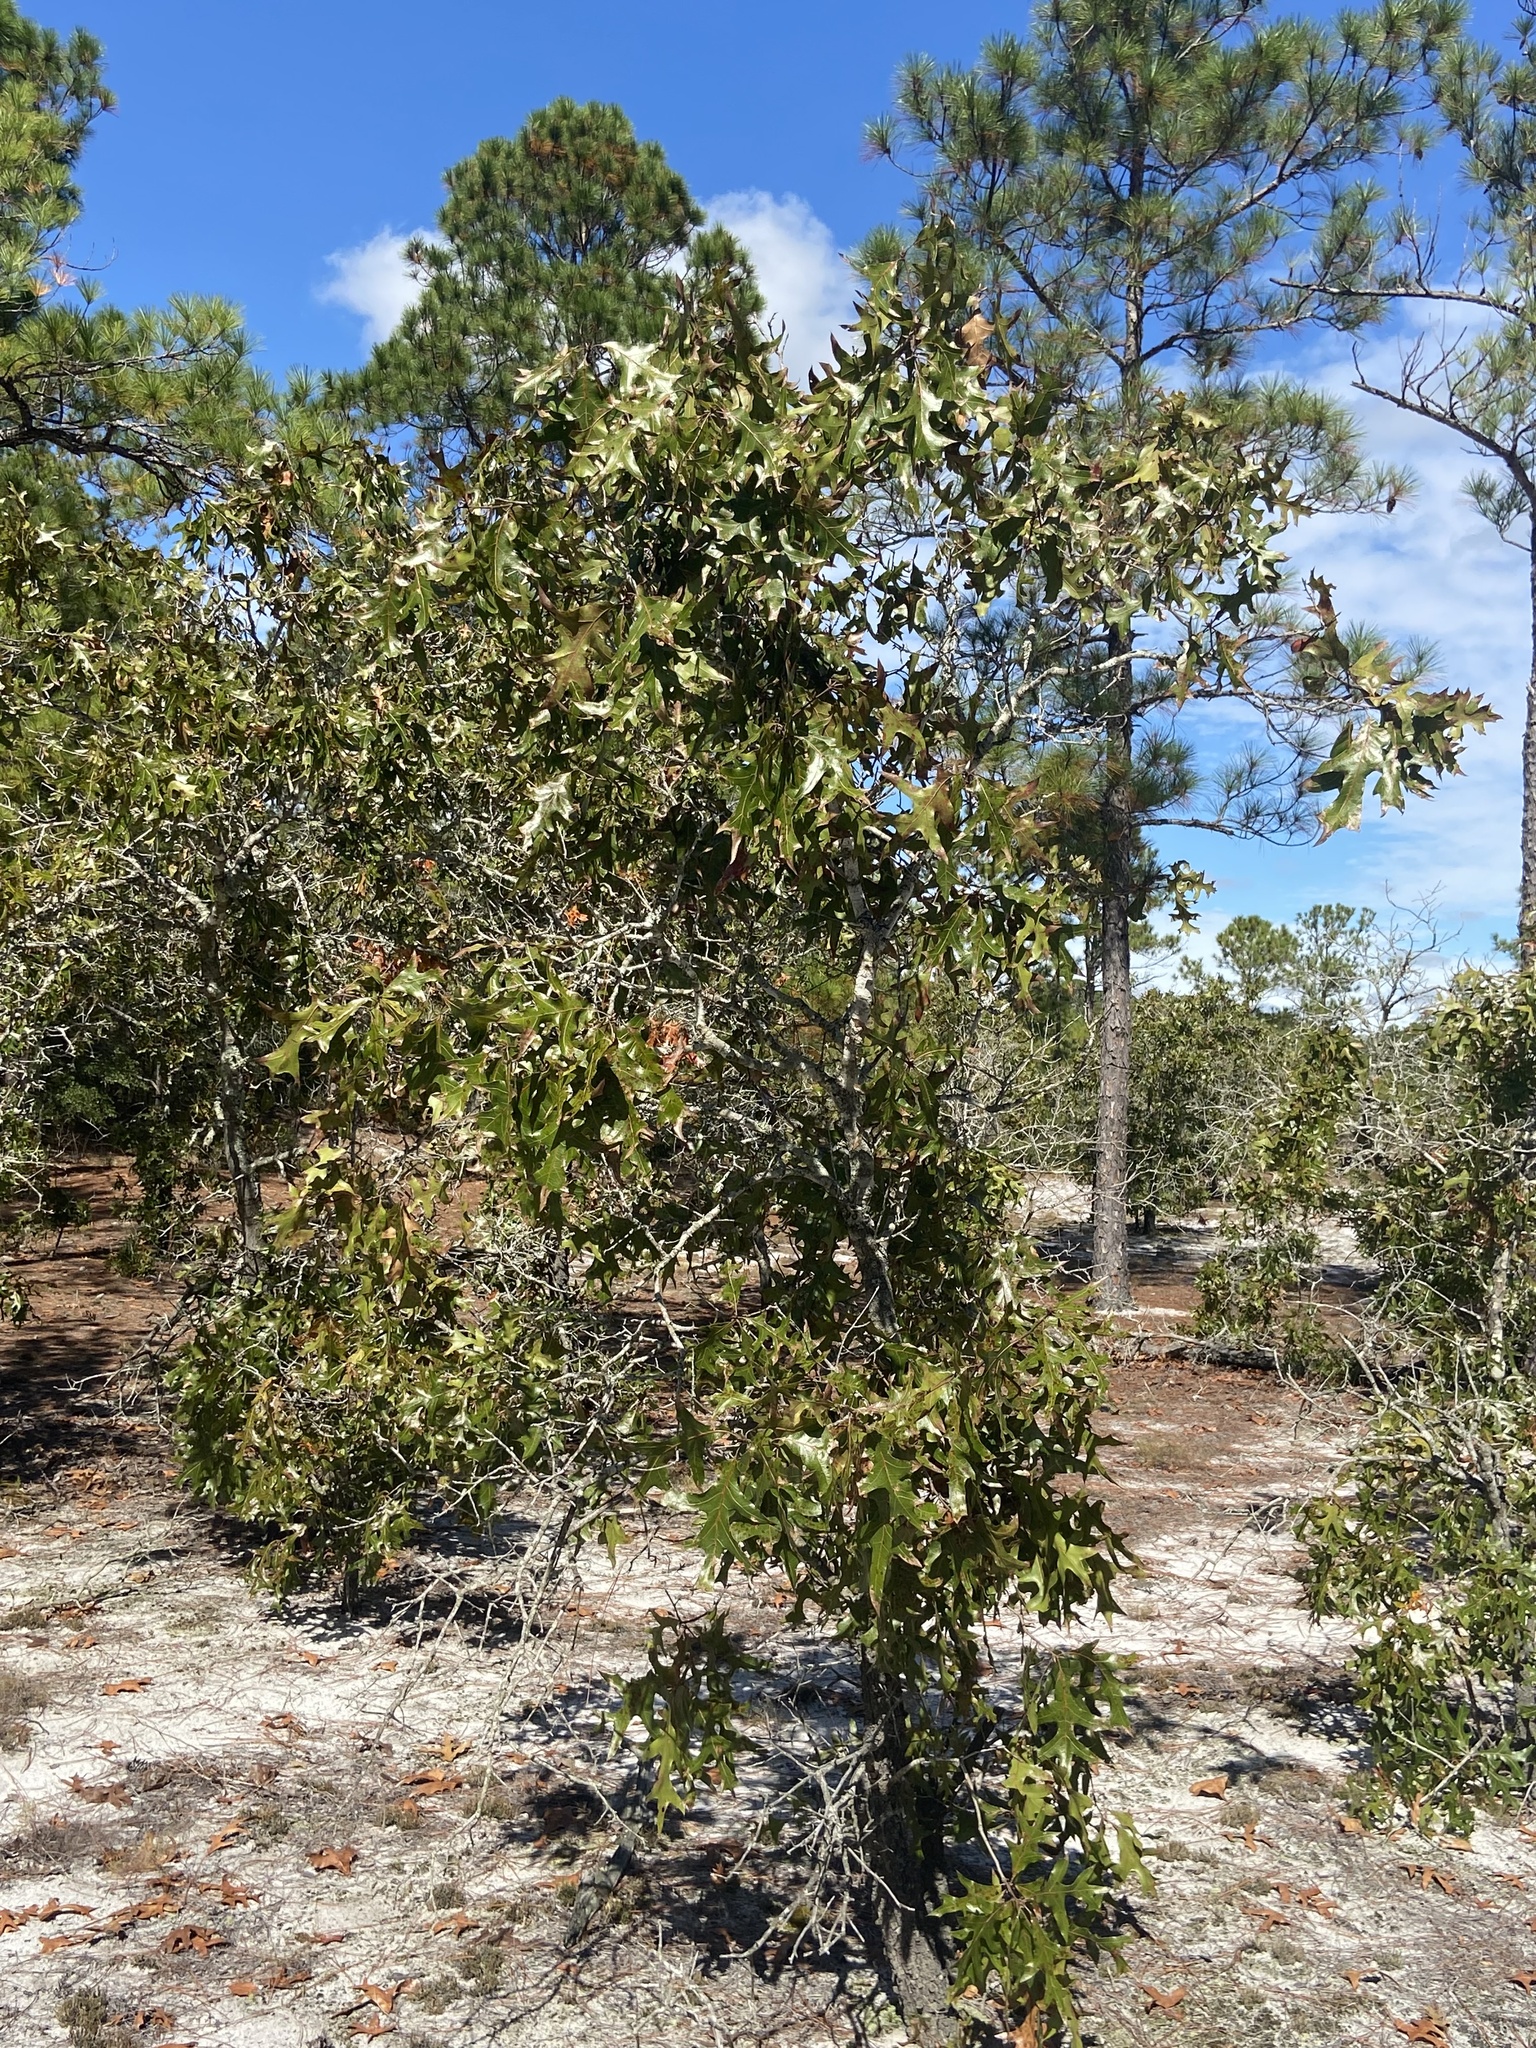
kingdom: Plantae
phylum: Tracheophyta
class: Magnoliopsida
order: Fagales
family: Fagaceae
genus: Quercus
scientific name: Quercus laevis
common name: Turkey oak
